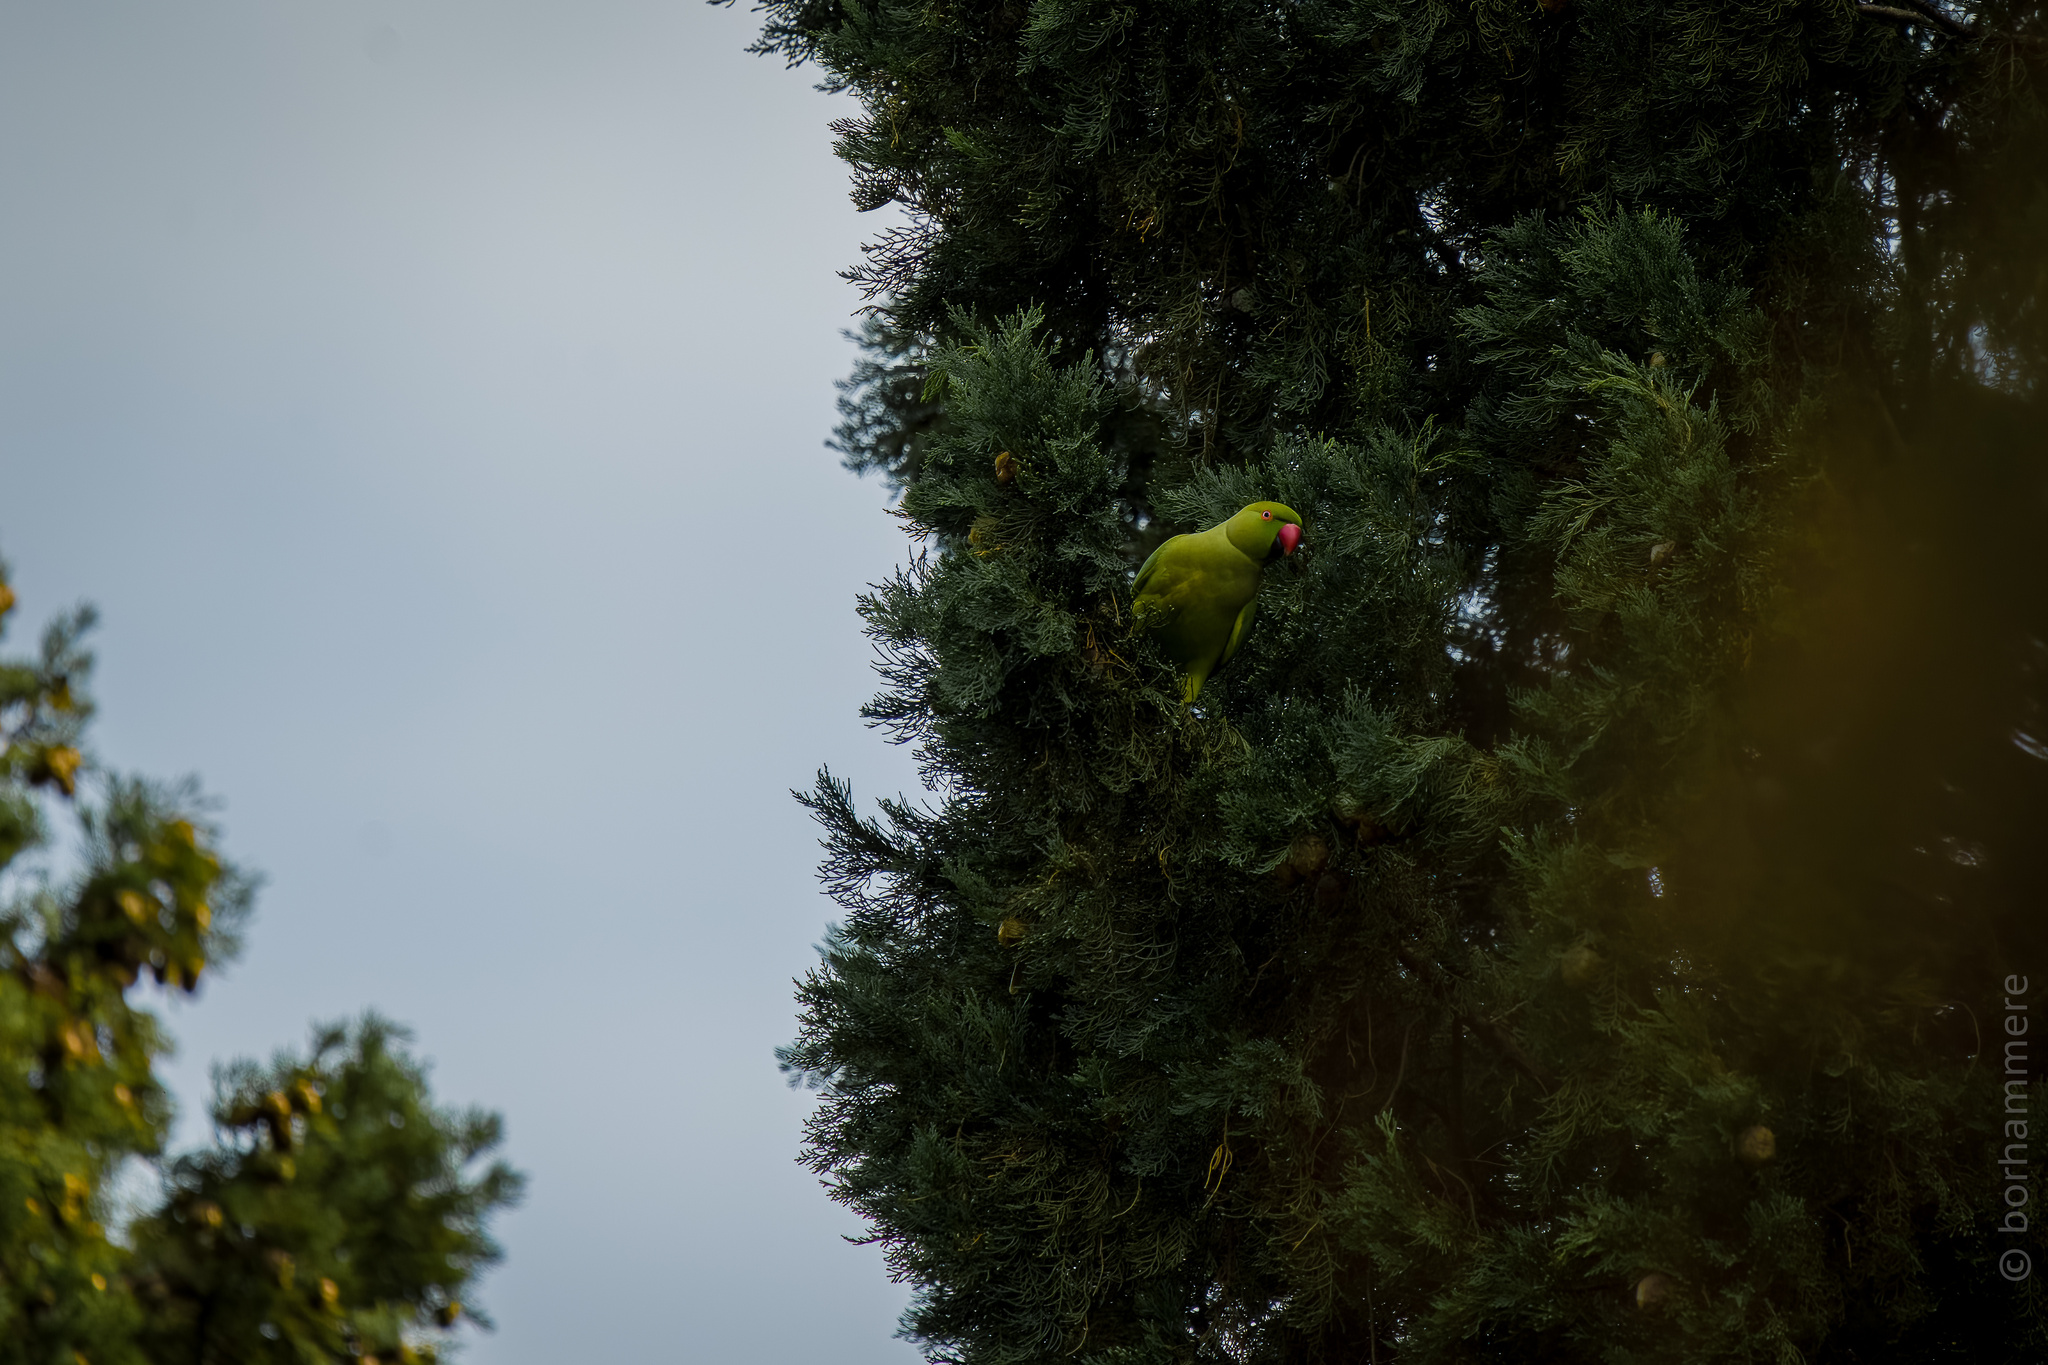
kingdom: Animalia
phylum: Chordata
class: Aves
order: Psittaciformes
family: Psittacidae
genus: Psittacula
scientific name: Psittacula krameri
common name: Rose-ringed parakeet
